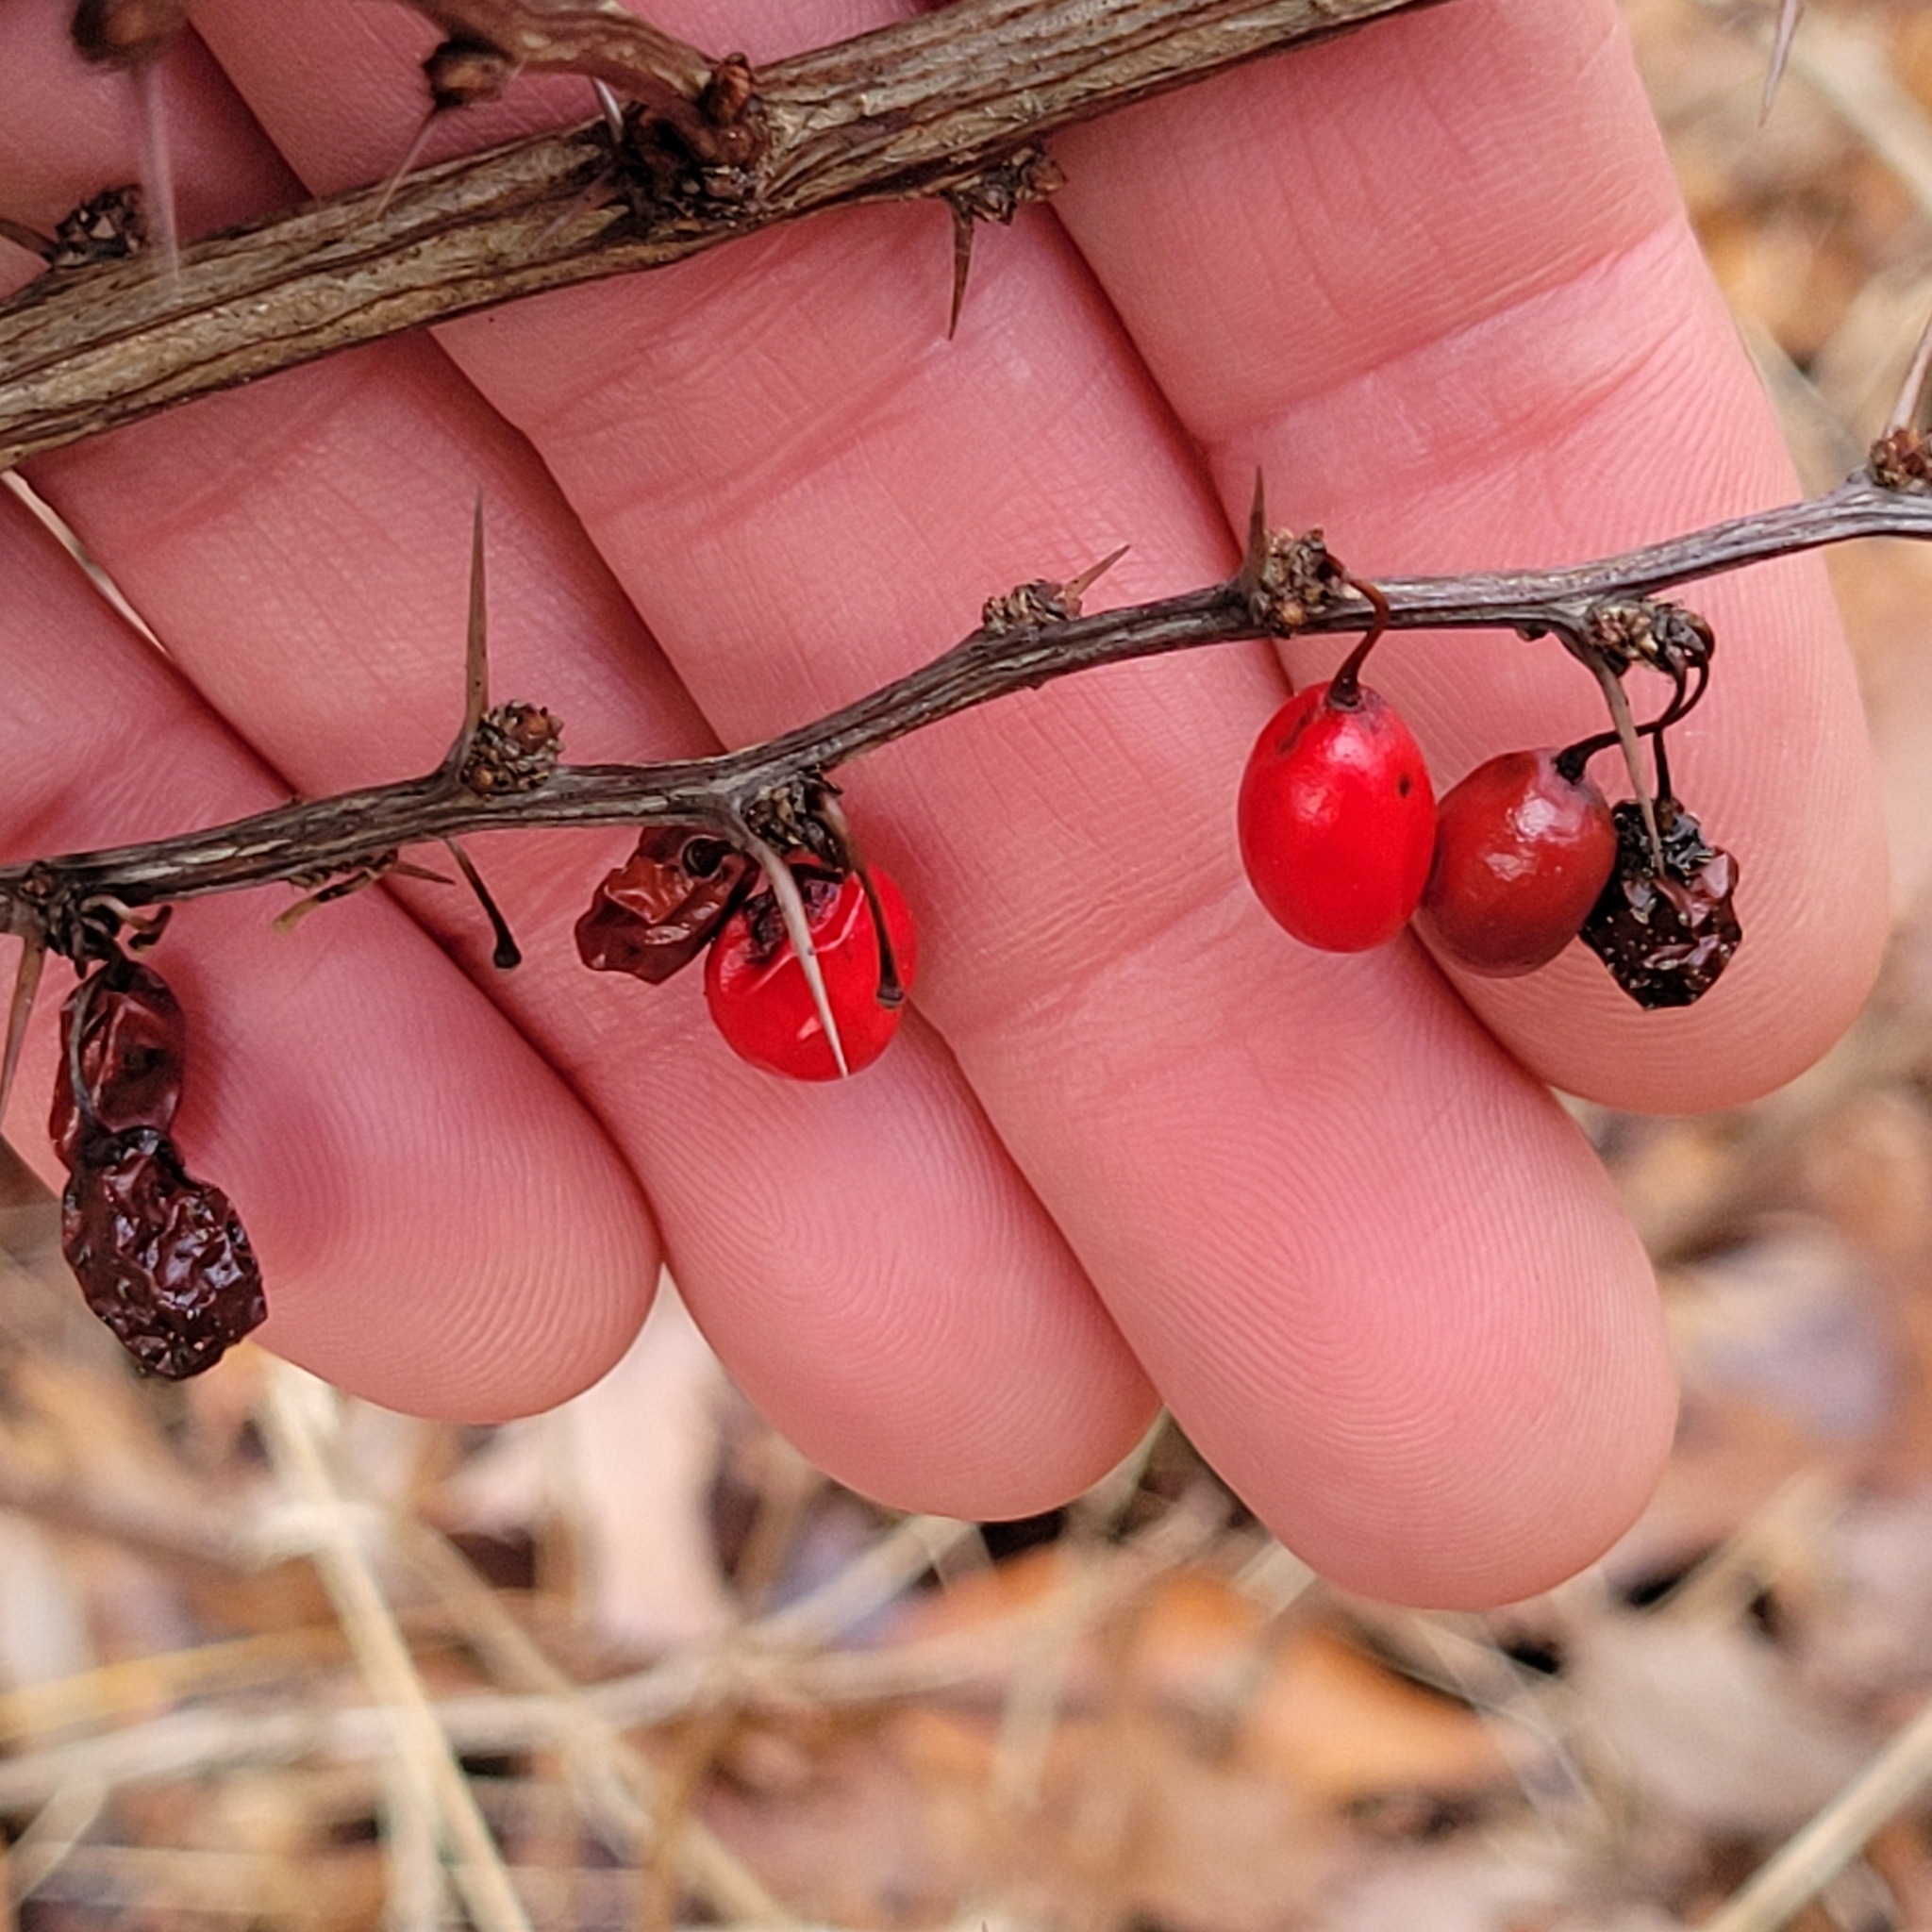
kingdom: Plantae
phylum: Tracheophyta
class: Magnoliopsida
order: Ranunculales
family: Berberidaceae
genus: Berberis
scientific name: Berberis thunbergii
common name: Japanese barberry
